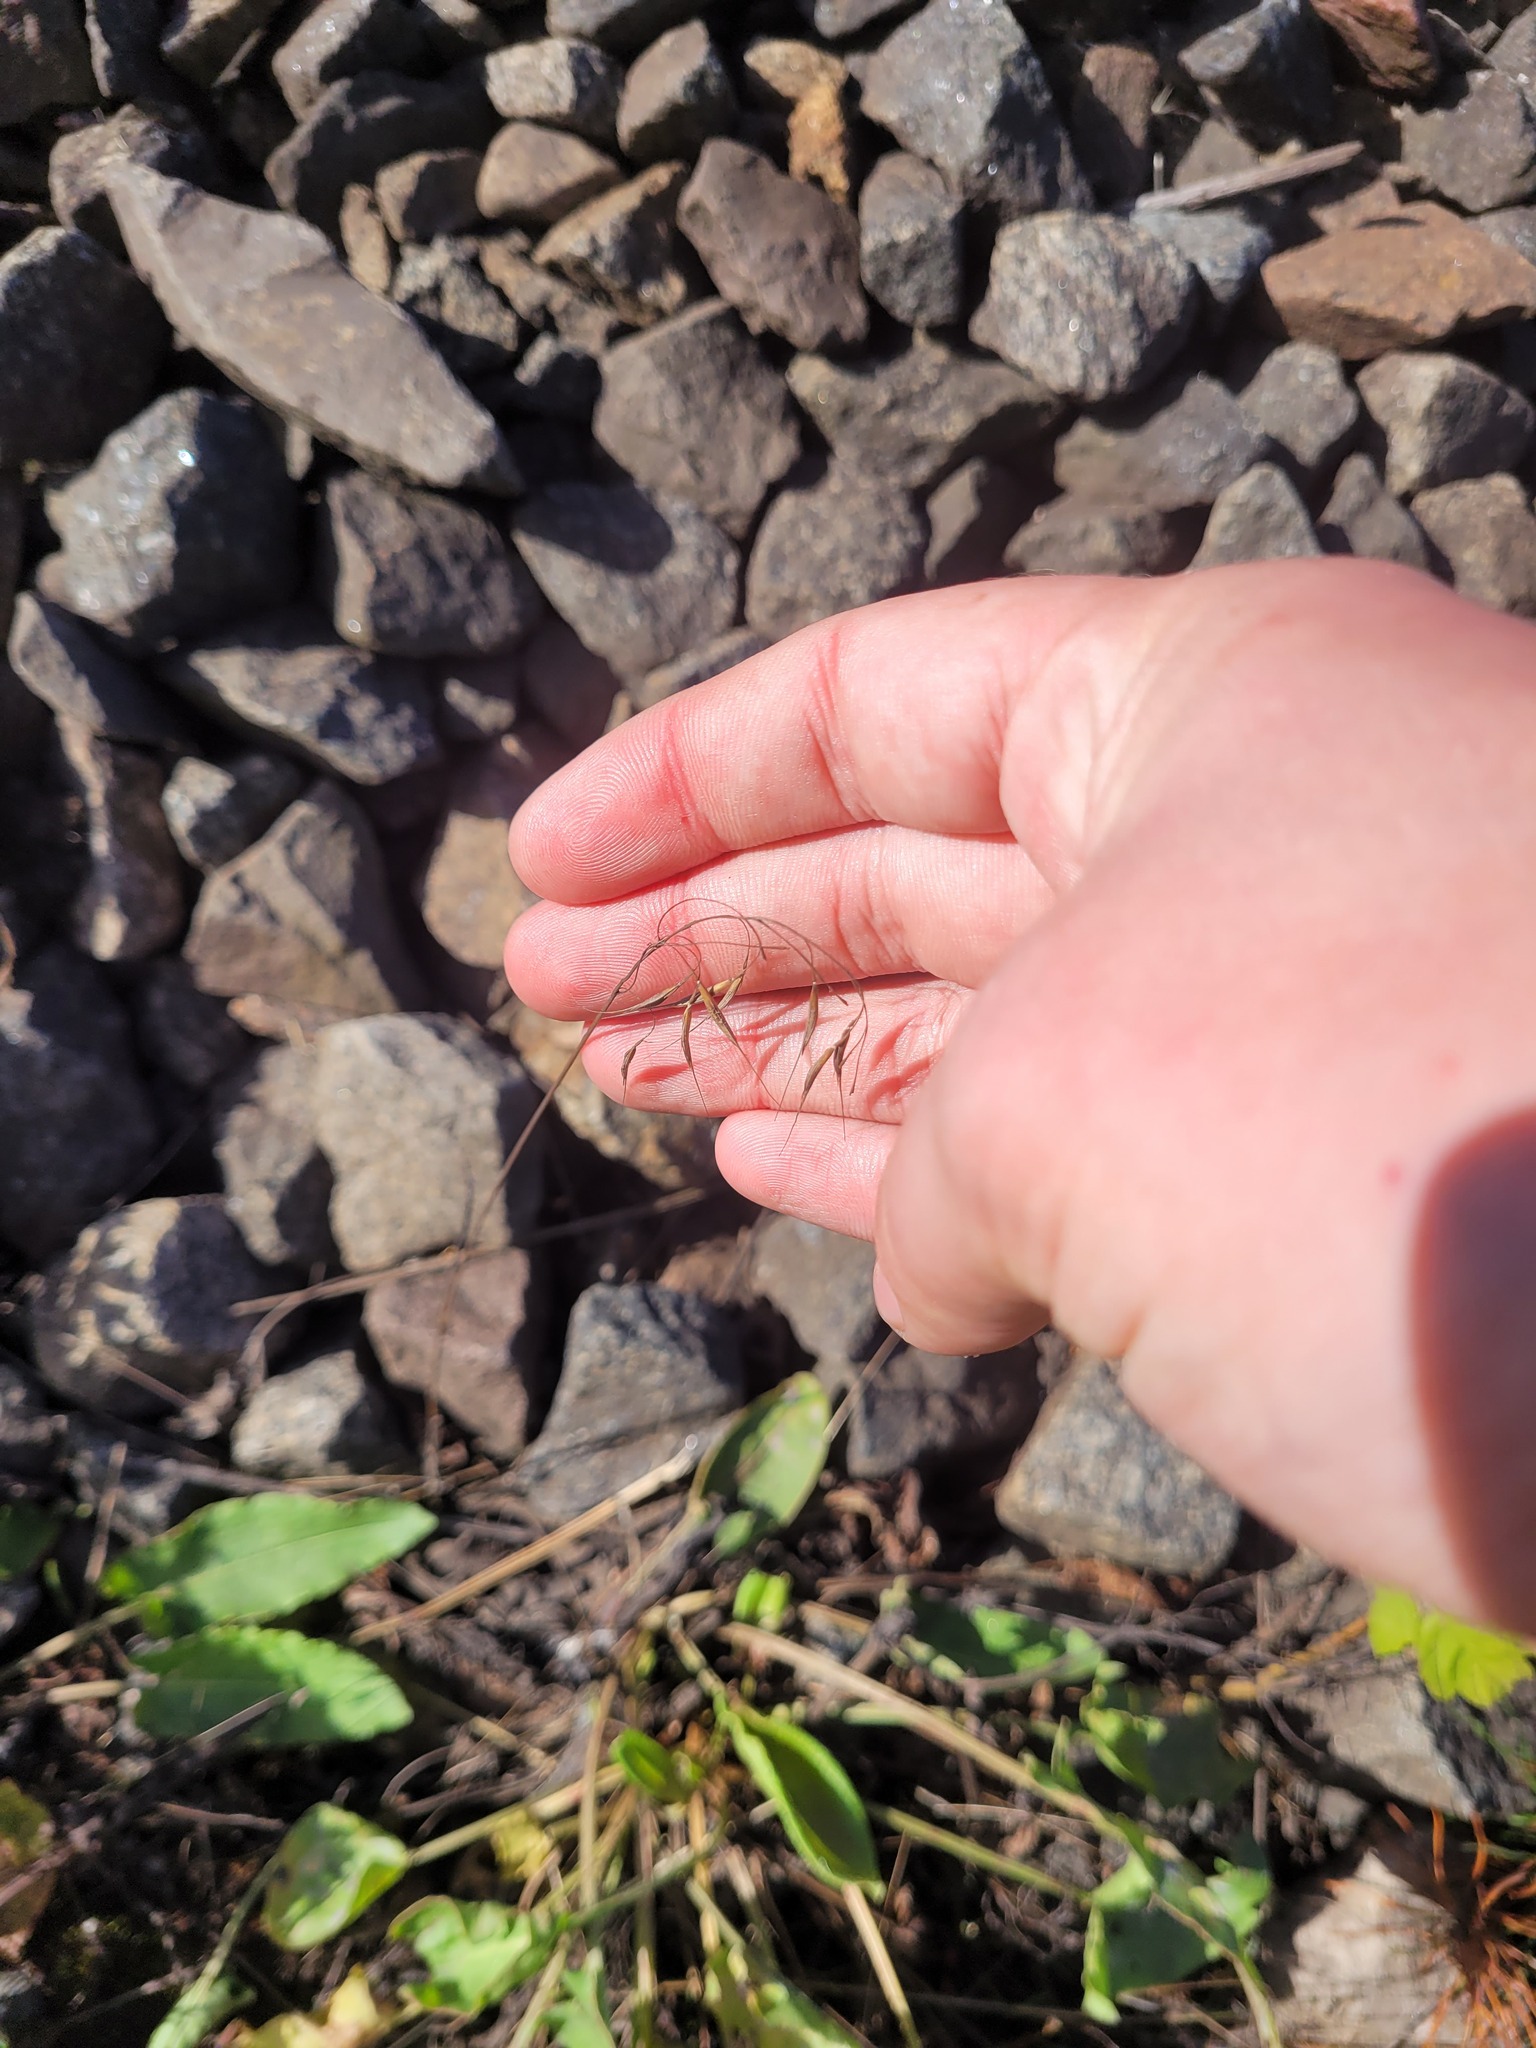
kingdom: Plantae
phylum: Tracheophyta
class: Liliopsida
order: Poales
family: Poaceae
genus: Bromus
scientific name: Bromus tectorum
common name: Cheatgrass
